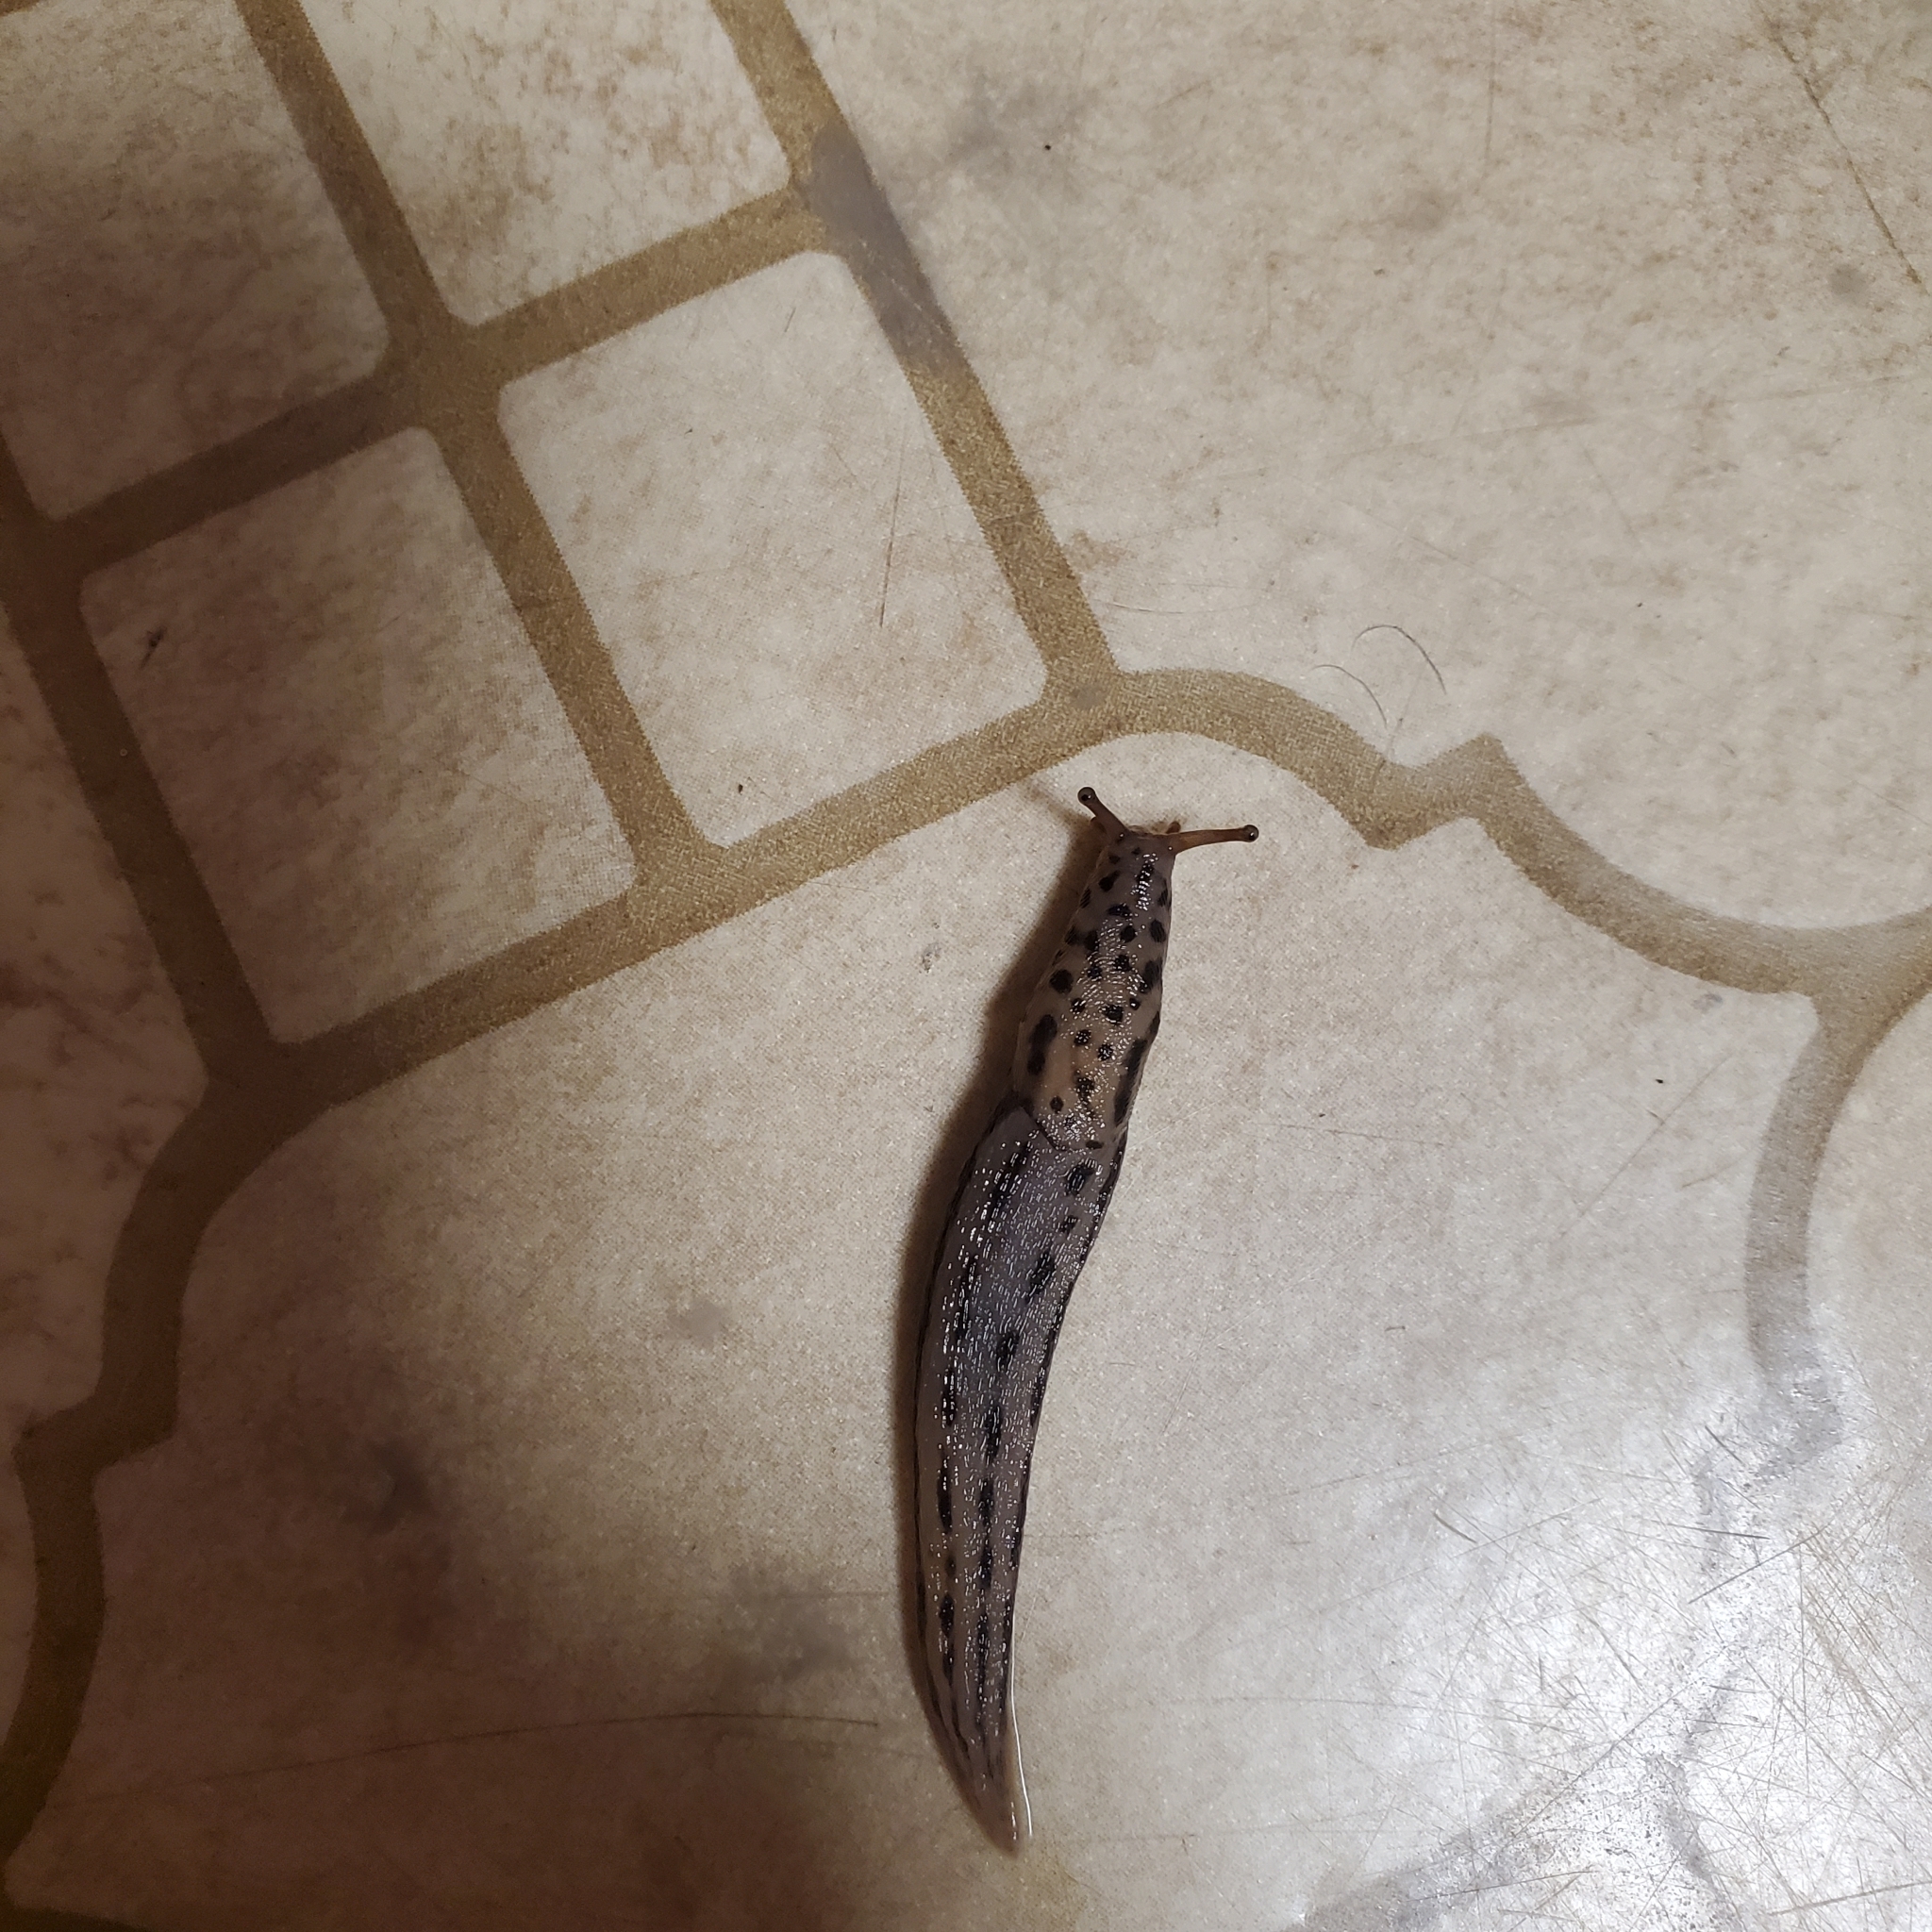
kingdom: Animalia
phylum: Mollusca
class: Gastropoda
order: Stylommatophora
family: Limacidae
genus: Limax
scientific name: Limax maximus
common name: Great grey slug
